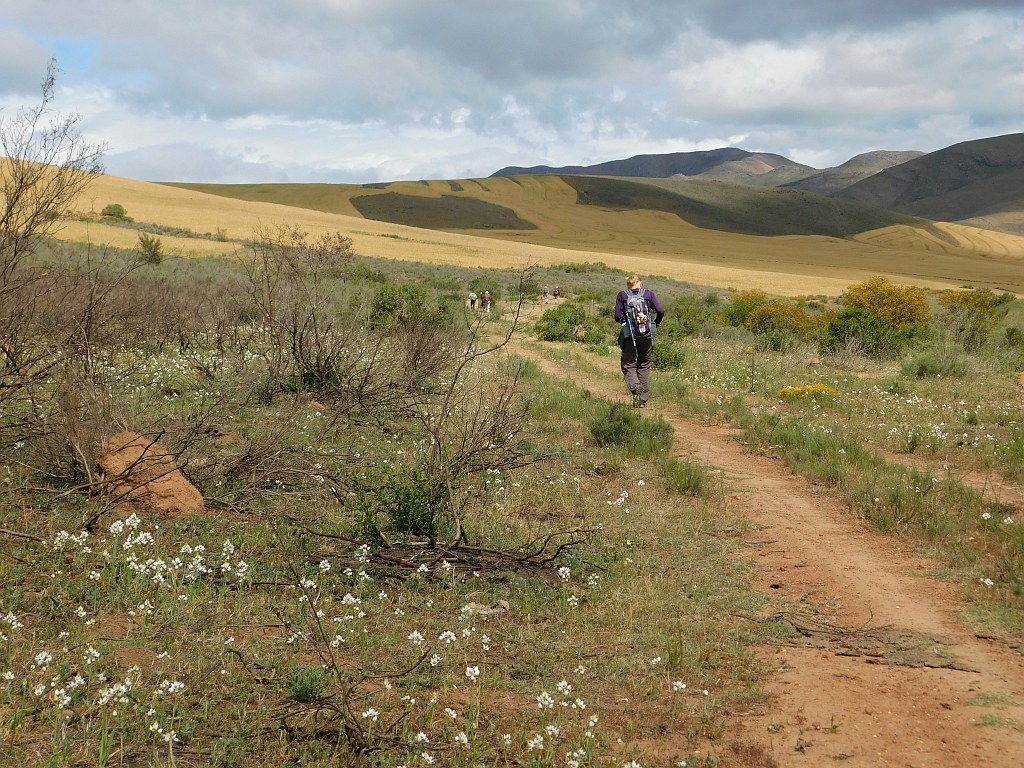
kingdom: Plantae
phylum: Tracheophyta
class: Liliopsida
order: Asparagales
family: Asparagaceae
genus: Ornithogalum
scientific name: Ornithogalum thyrsoides
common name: Chincherinchee
